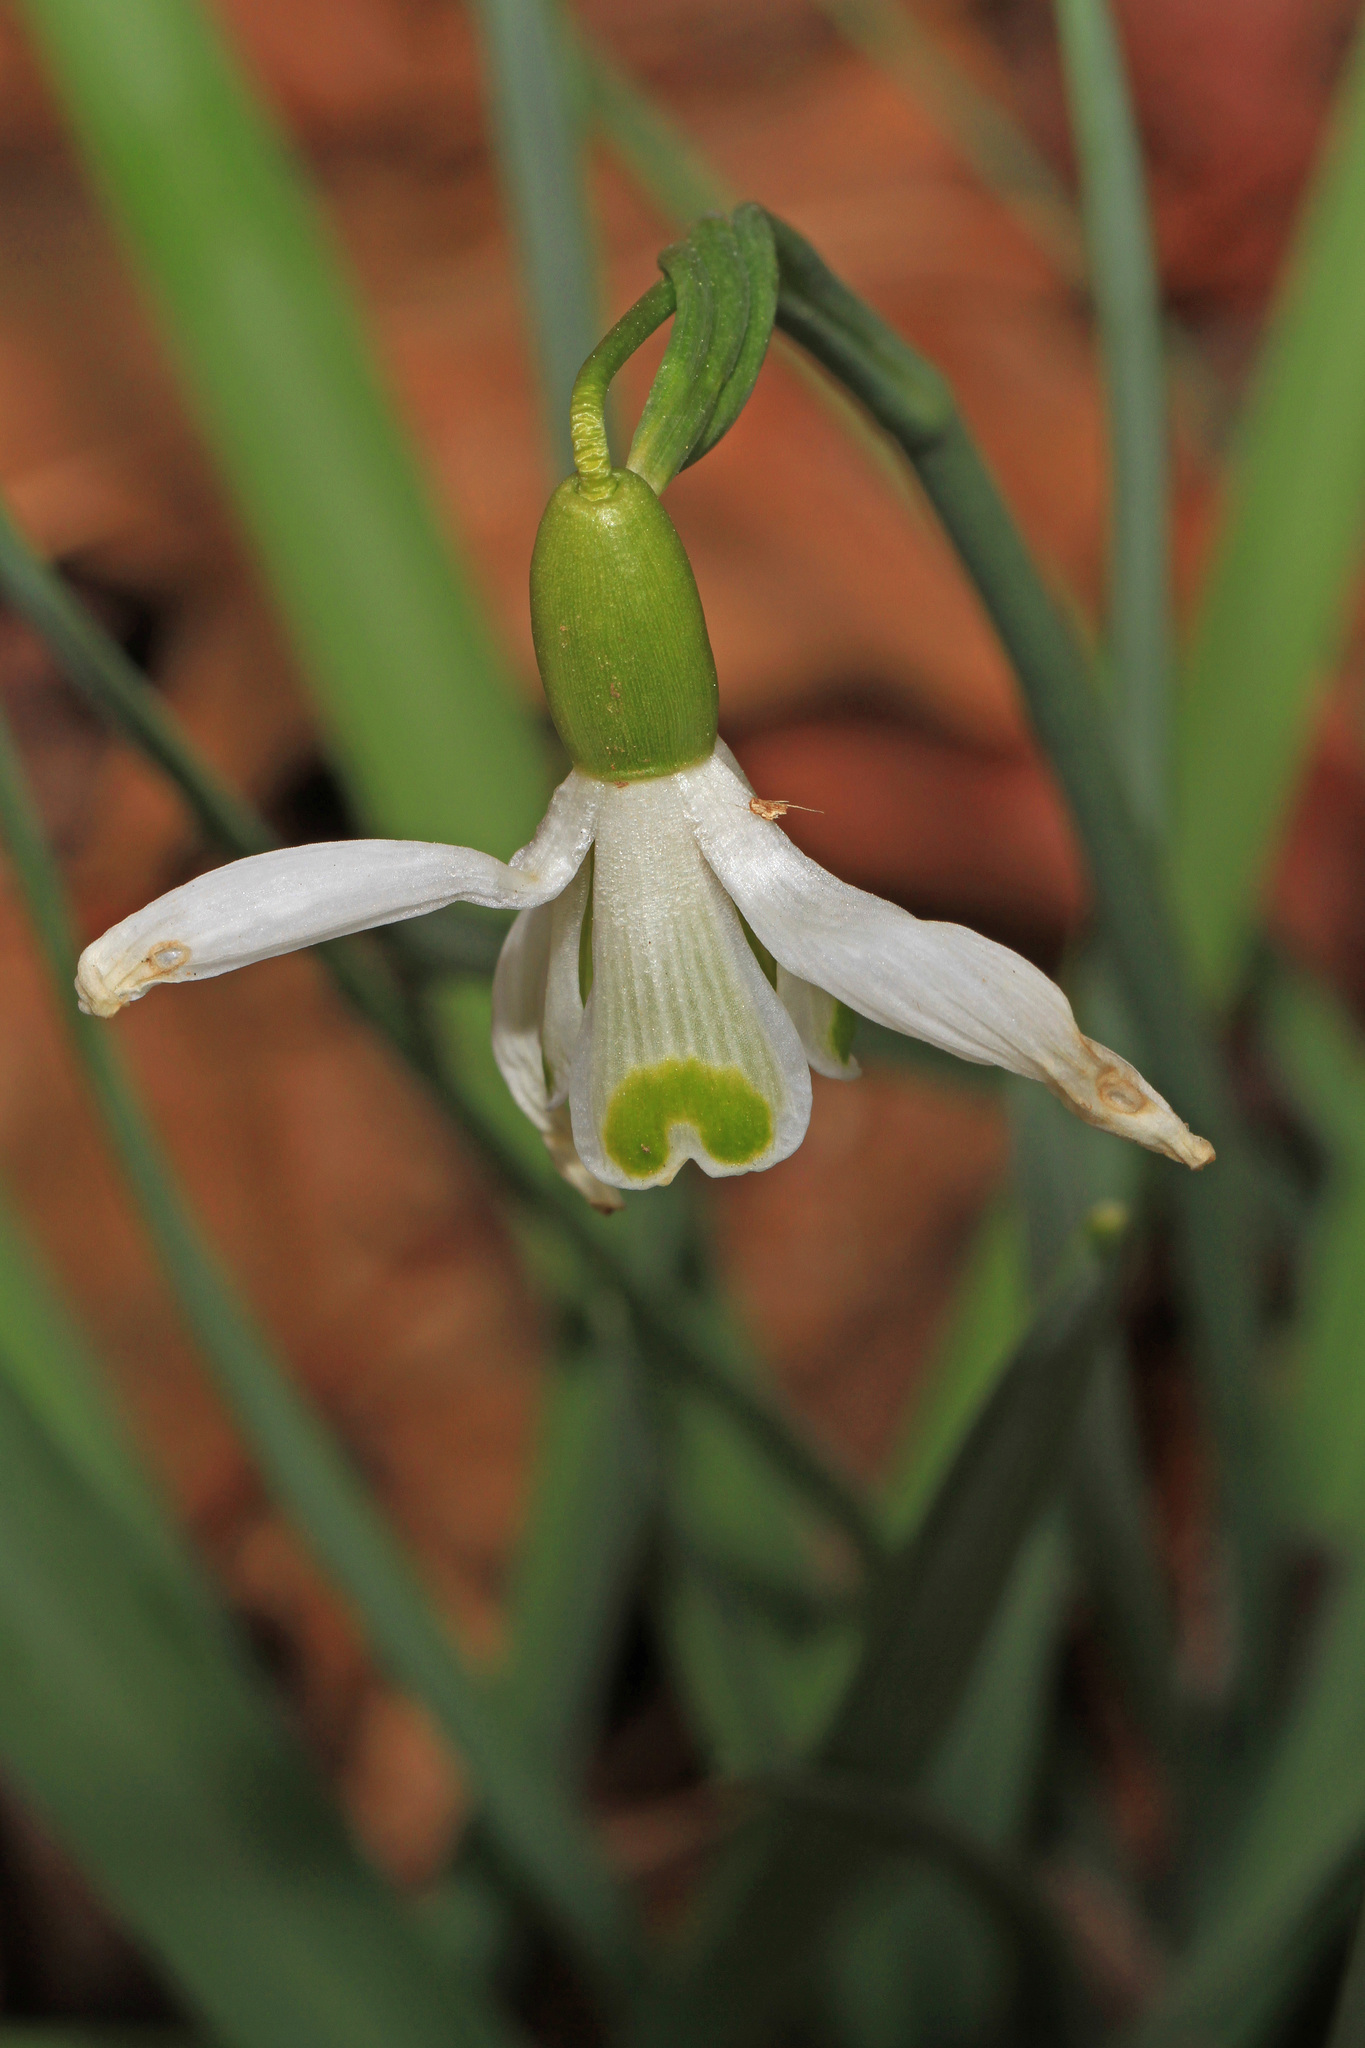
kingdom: Plantae
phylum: Tracheophyta
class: Liliopsida
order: Asparagales
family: Amaryllidaceae
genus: Galanthus
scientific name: Galanthus nivalis
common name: Snowdrop
